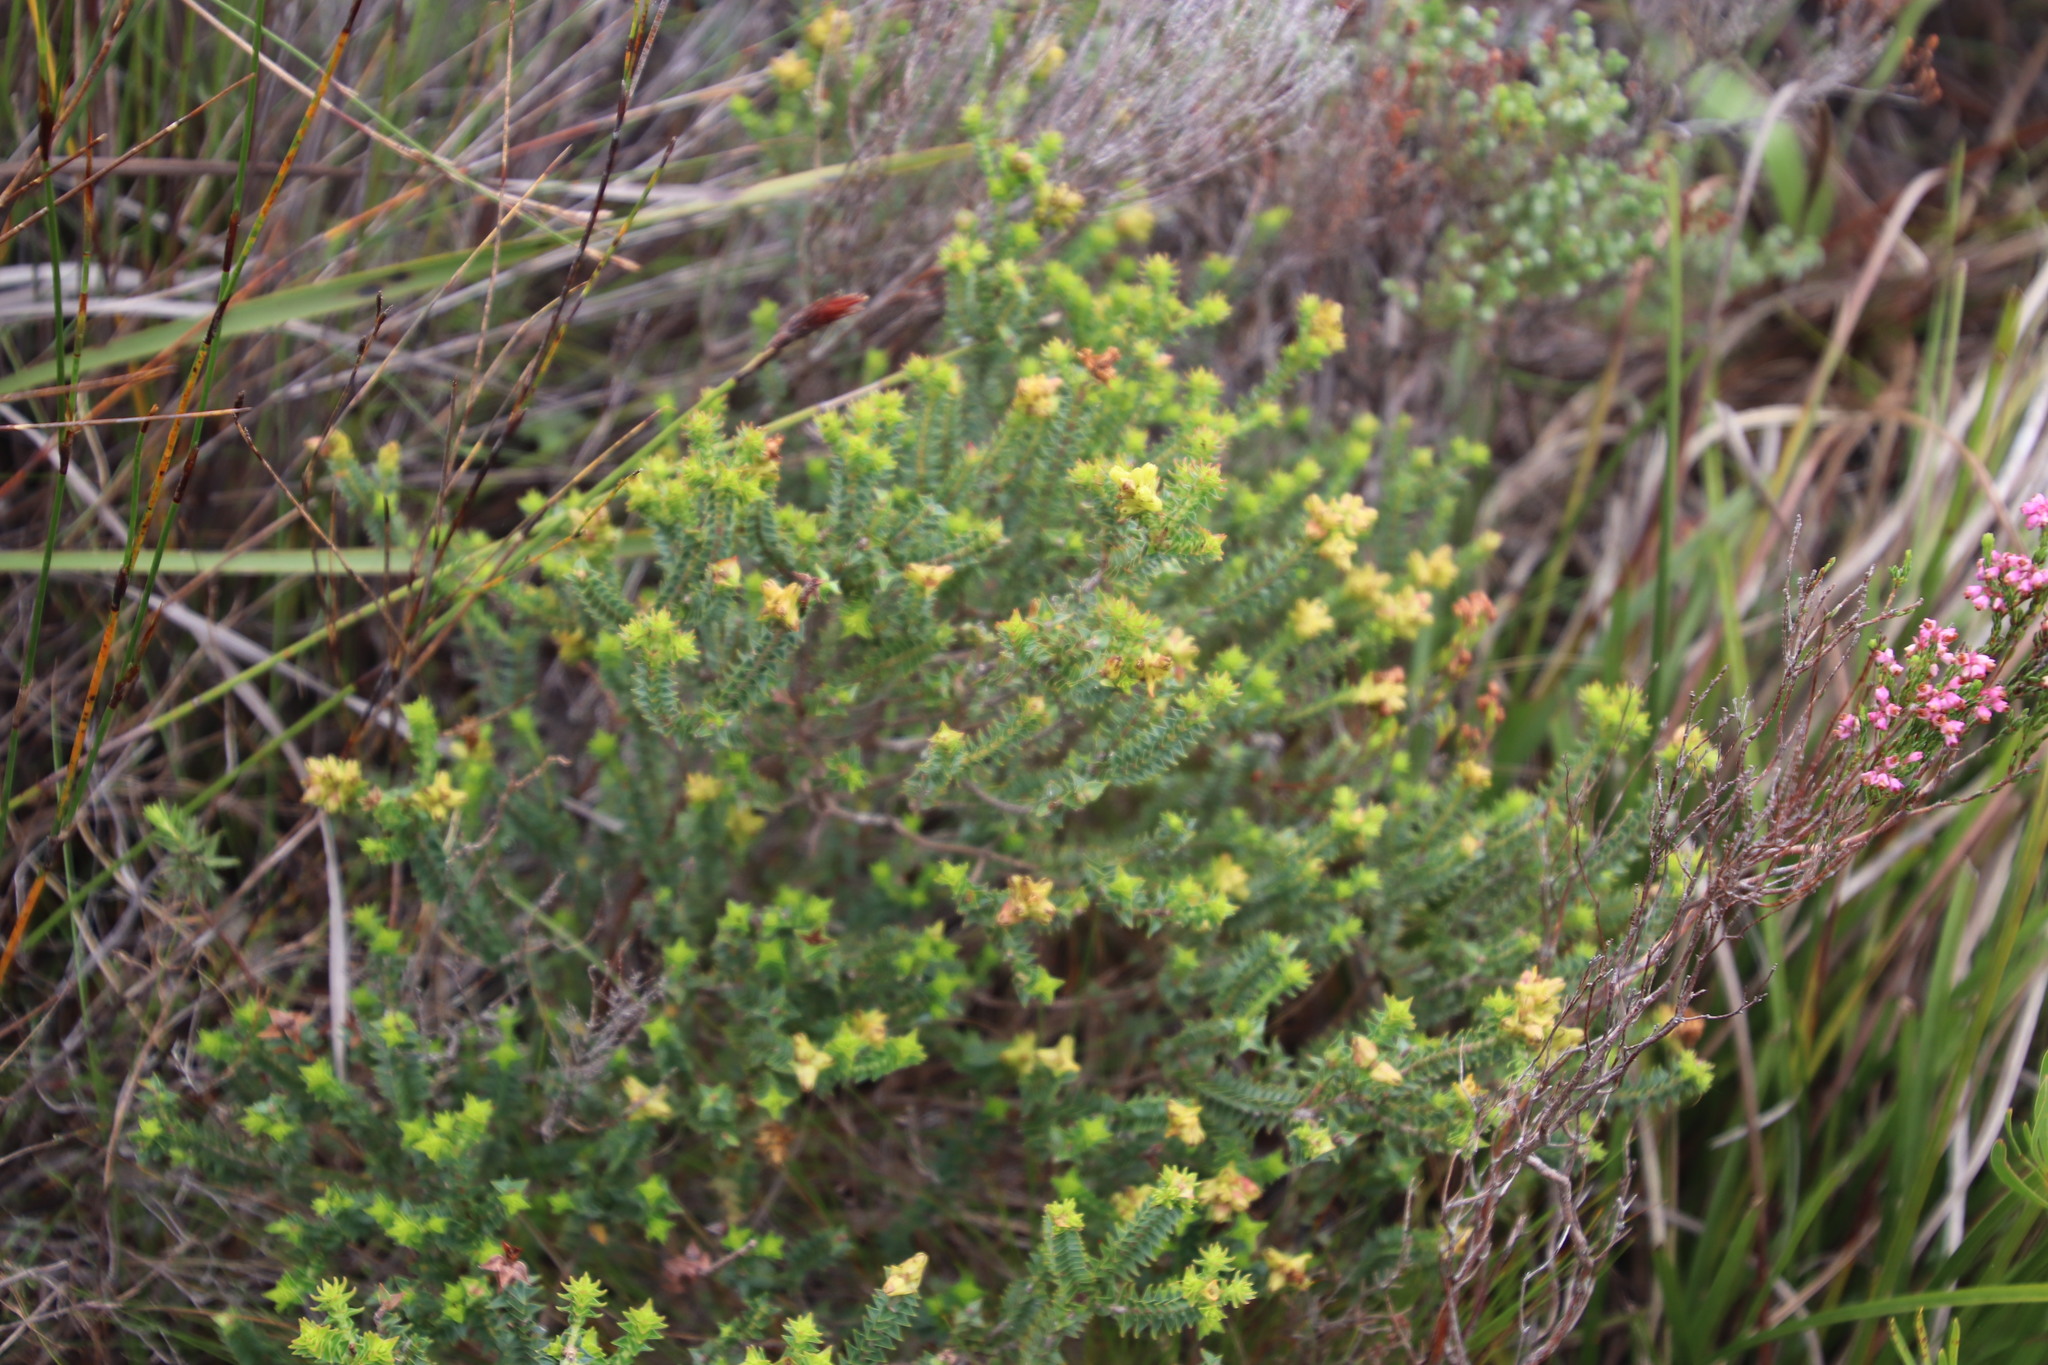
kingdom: Plantae
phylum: Tracheophyta
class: Magnoliopsida
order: Myrtales
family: Penaeaceae
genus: Penaea
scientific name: Penaea mucronata
